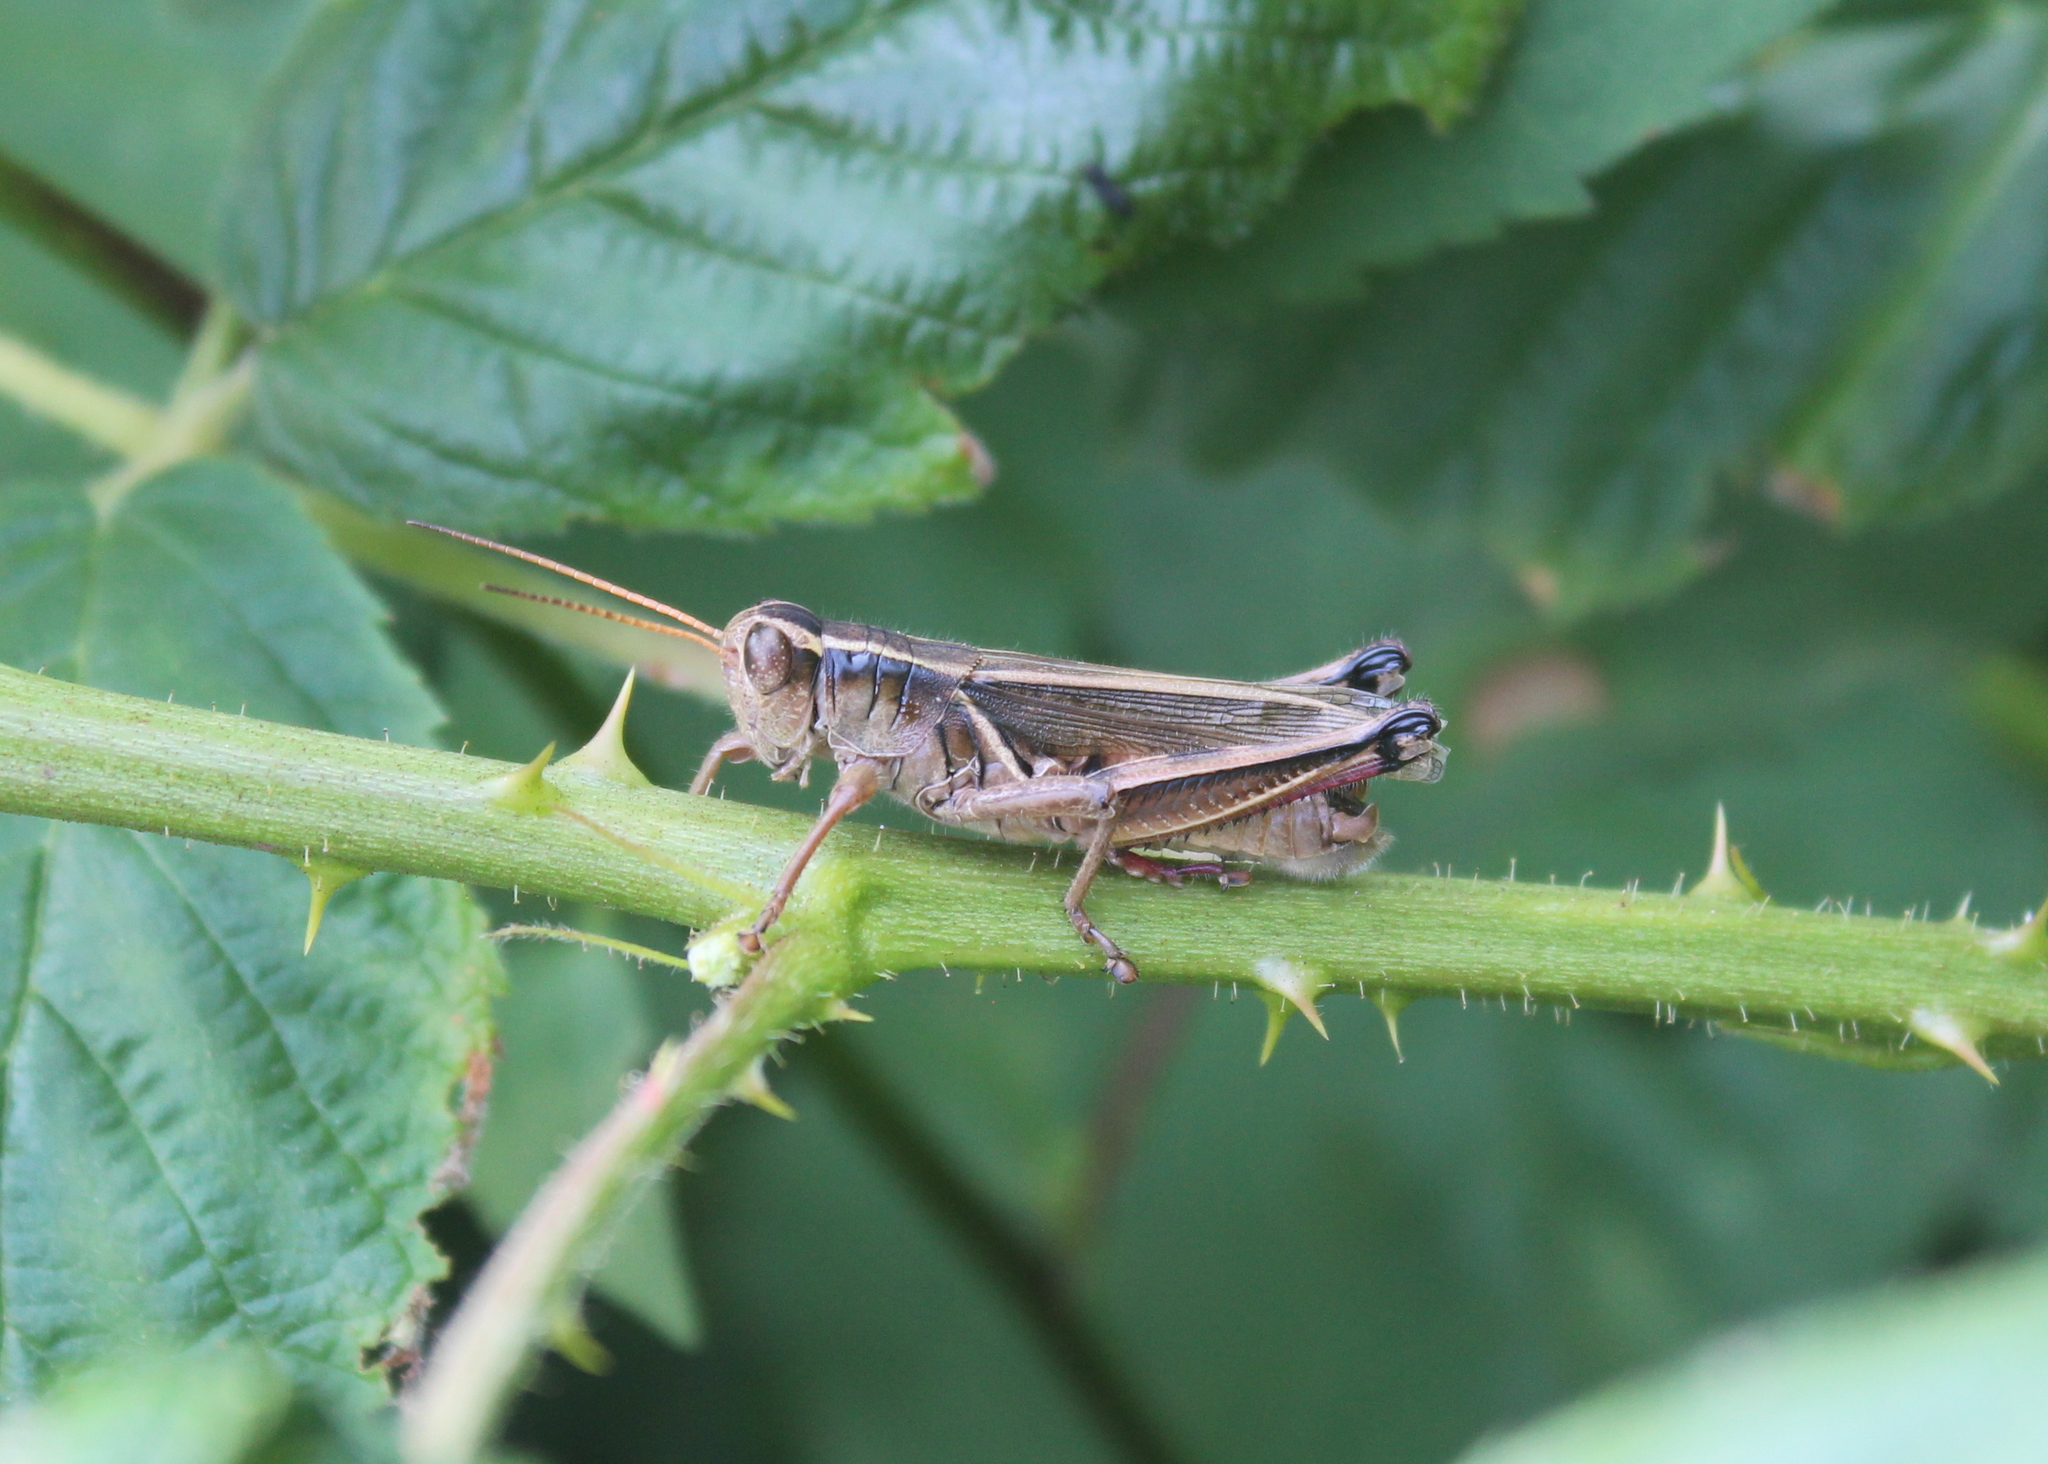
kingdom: Animalia
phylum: Arthropoda
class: Insecta
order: Orthoptera
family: Acrididae
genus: Melanoplus
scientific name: Melanoplus bivittatus
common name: Two-striped grasshopper
